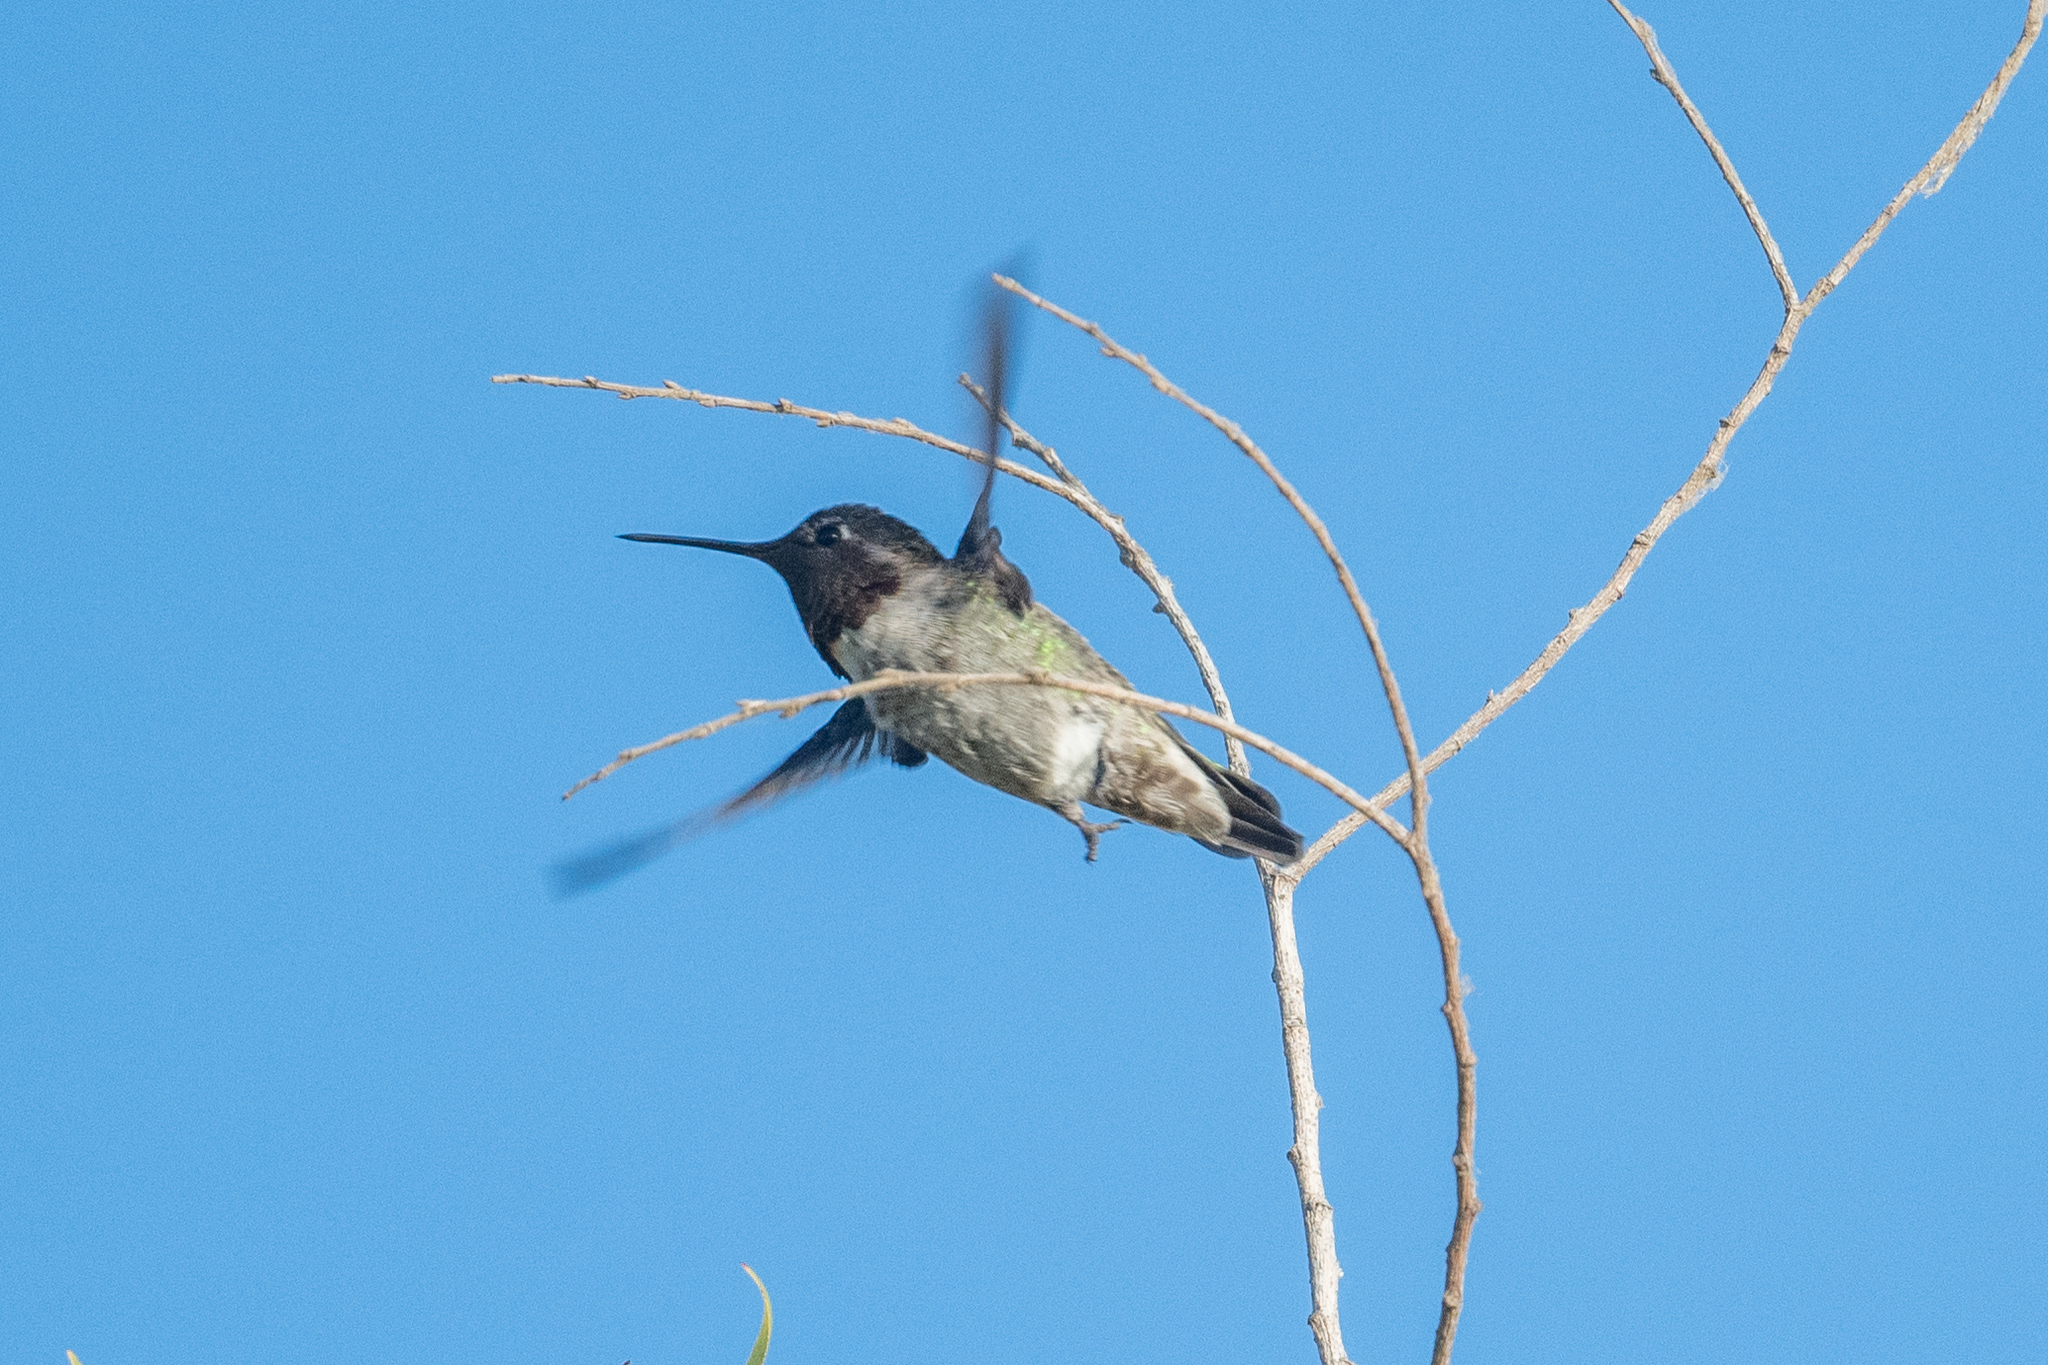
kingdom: Animalia
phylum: Chordata
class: Aves
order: Apodiformes
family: Trochilidae
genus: Calypte
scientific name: Calypte anna
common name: Anna's hummingbird
